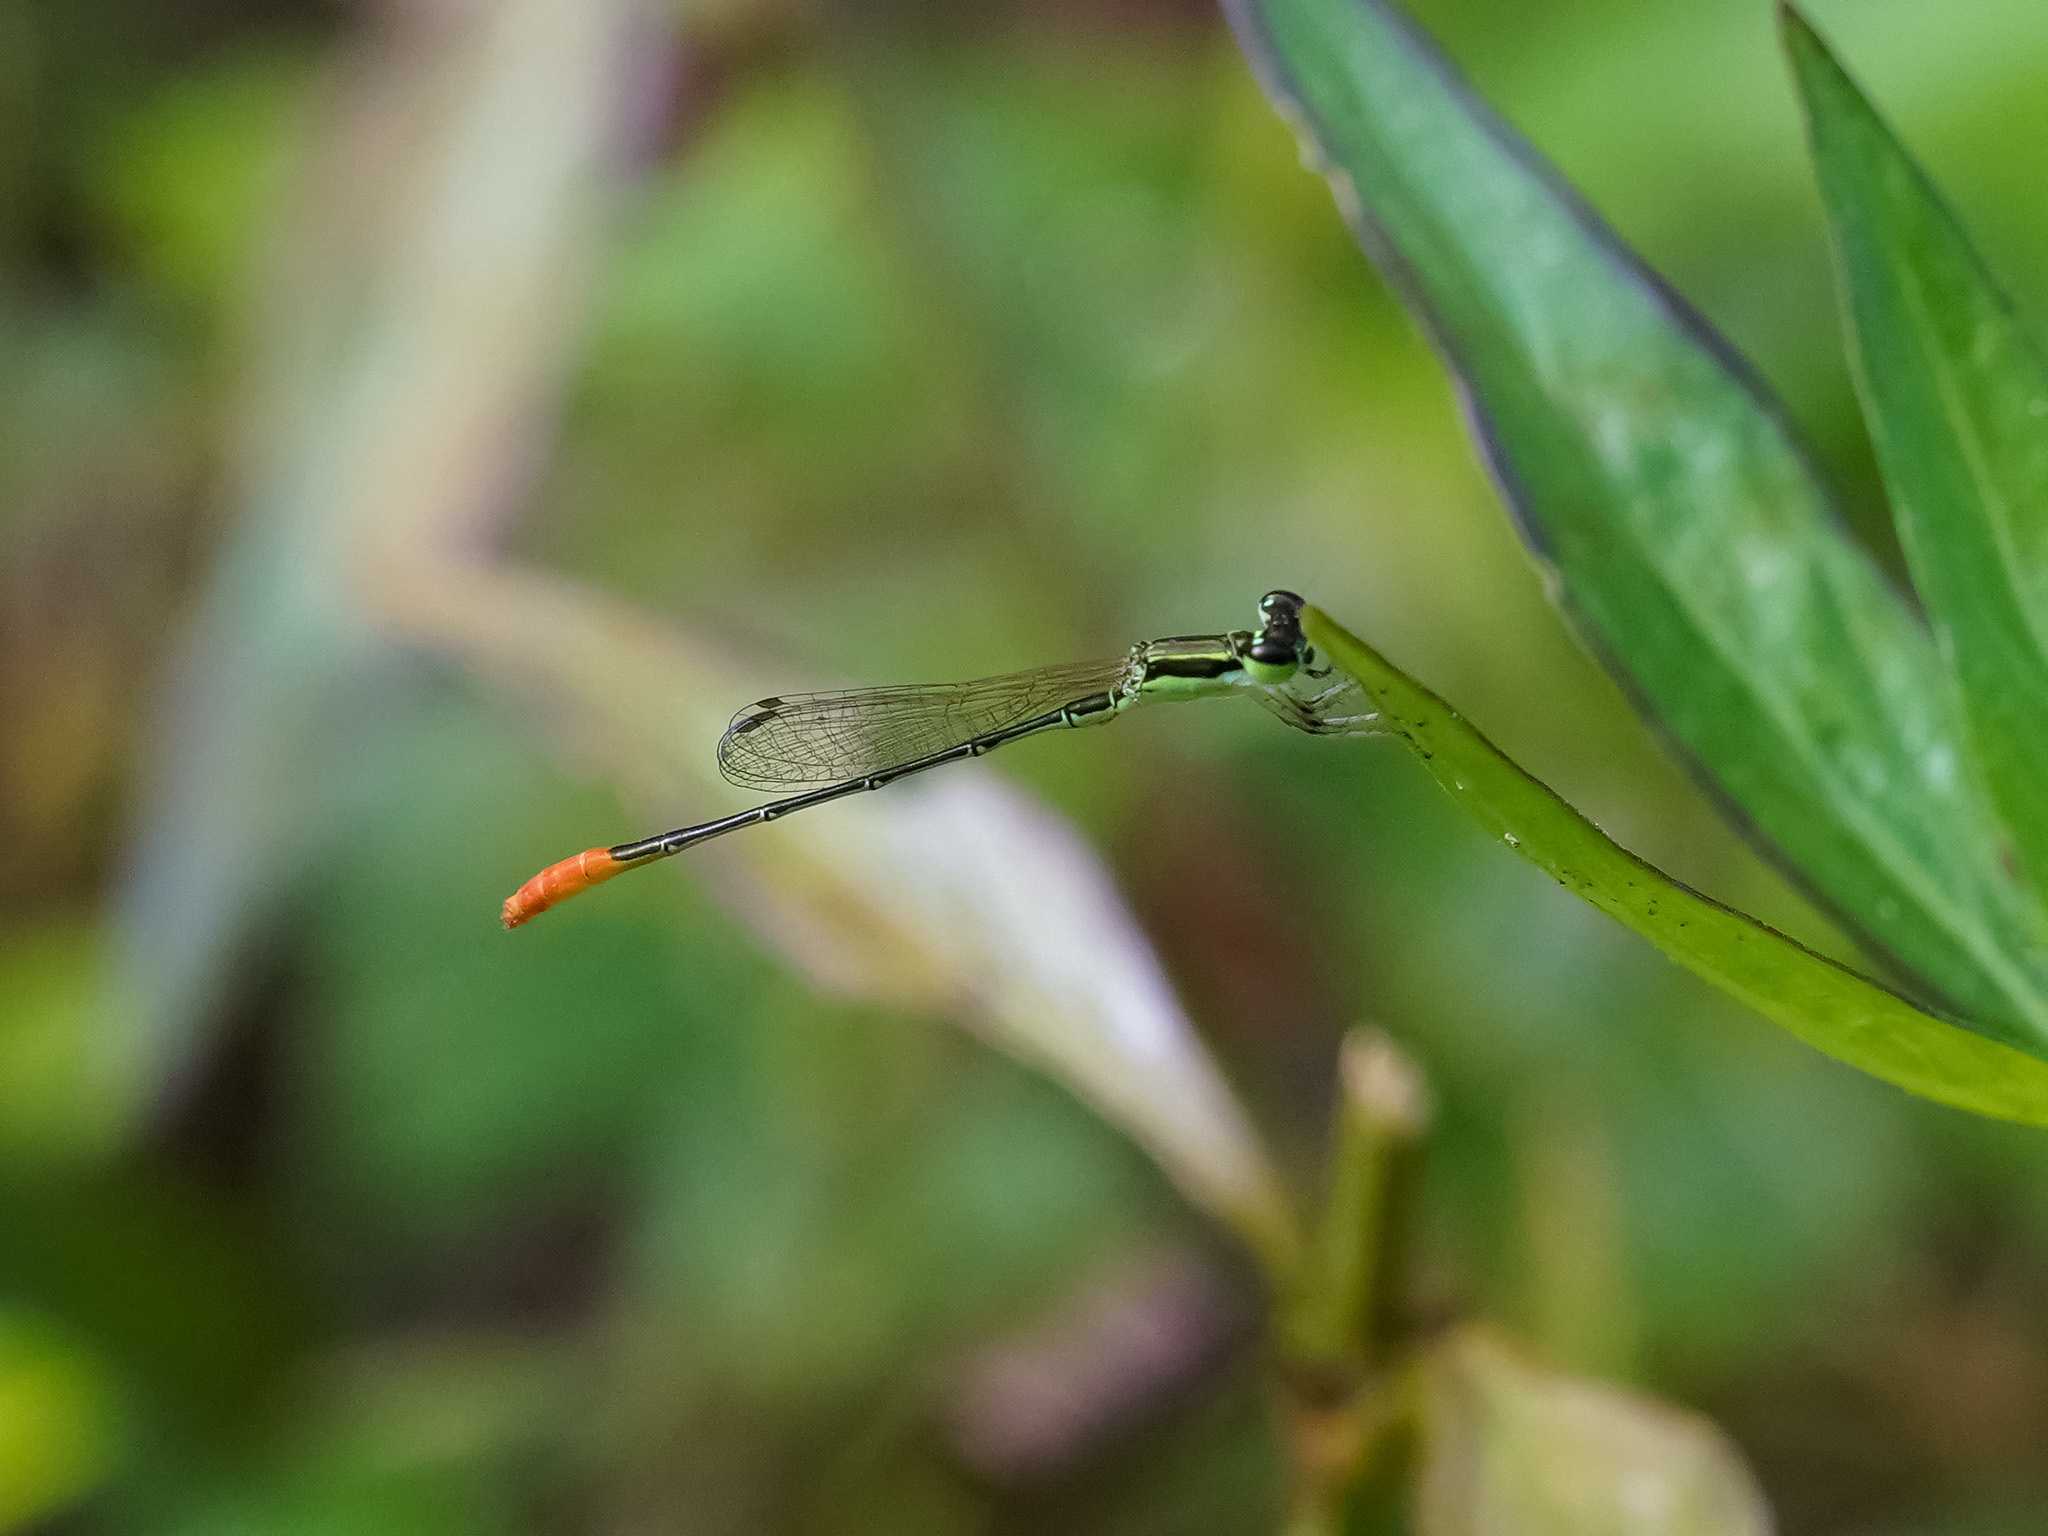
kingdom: Animalia
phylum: Arthropoda
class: Insecta
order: Odonata
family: Coenagrionidae
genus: Agriocnemis
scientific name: Agriocnemis femina
